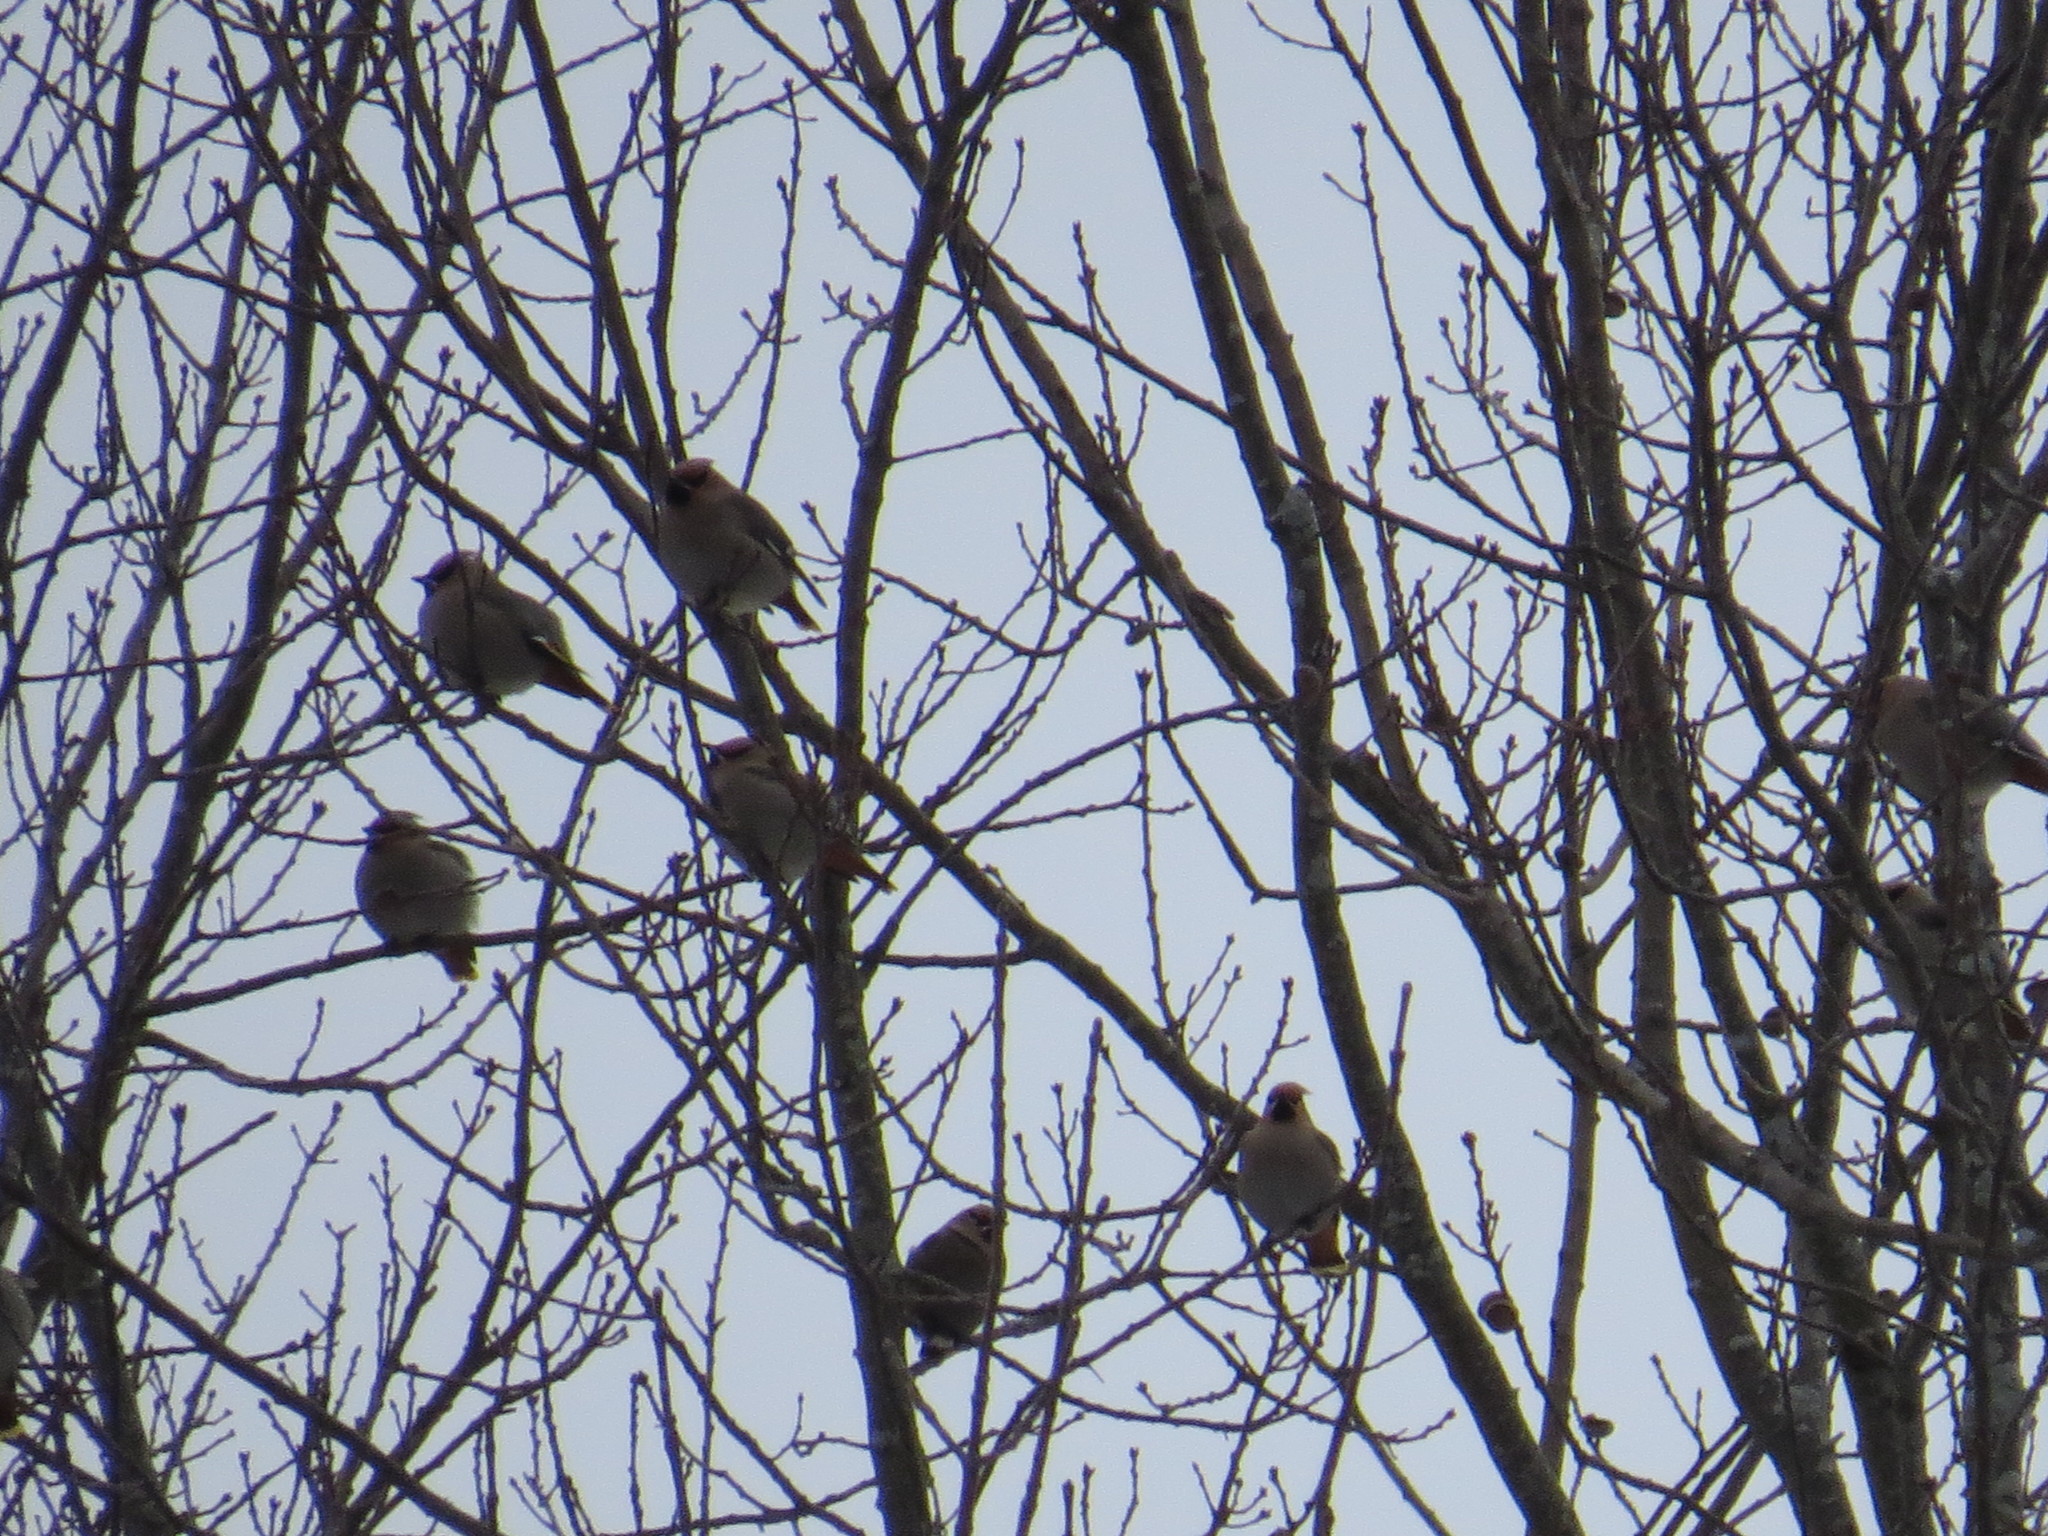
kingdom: Animalia
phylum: Chordata
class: Aves
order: Passeriformes
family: Bombycillidae
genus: Bombycilla
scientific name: Bombycilla garrulus
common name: Bohemian waxwing
